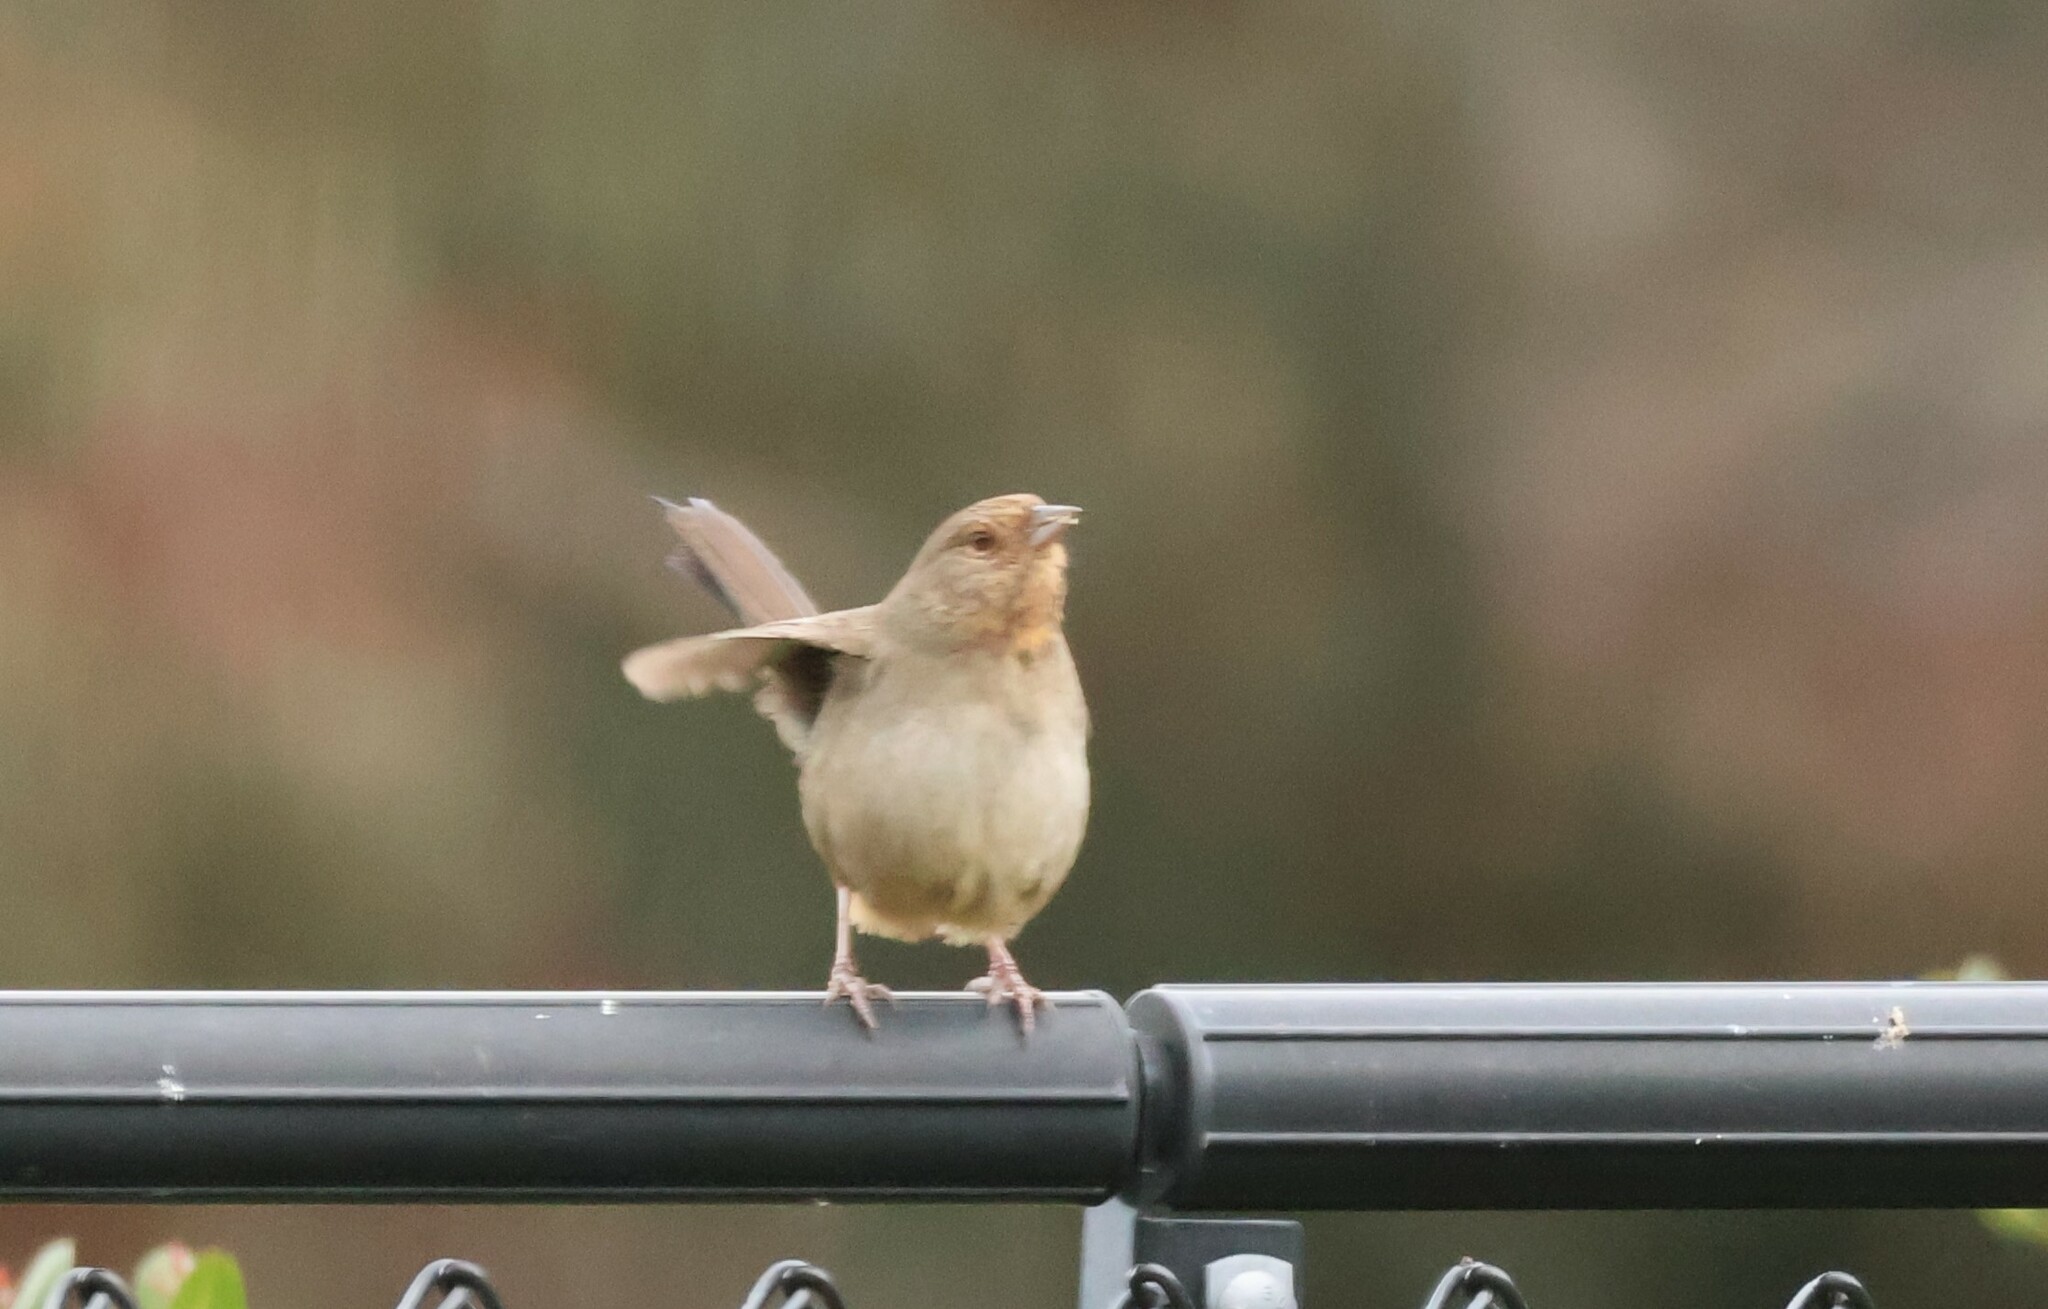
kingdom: Animalia
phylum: Chordata
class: Aves
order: Passeriformes
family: Passerellidae
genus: Melozone
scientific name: Melozone crissalis
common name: California towhee
